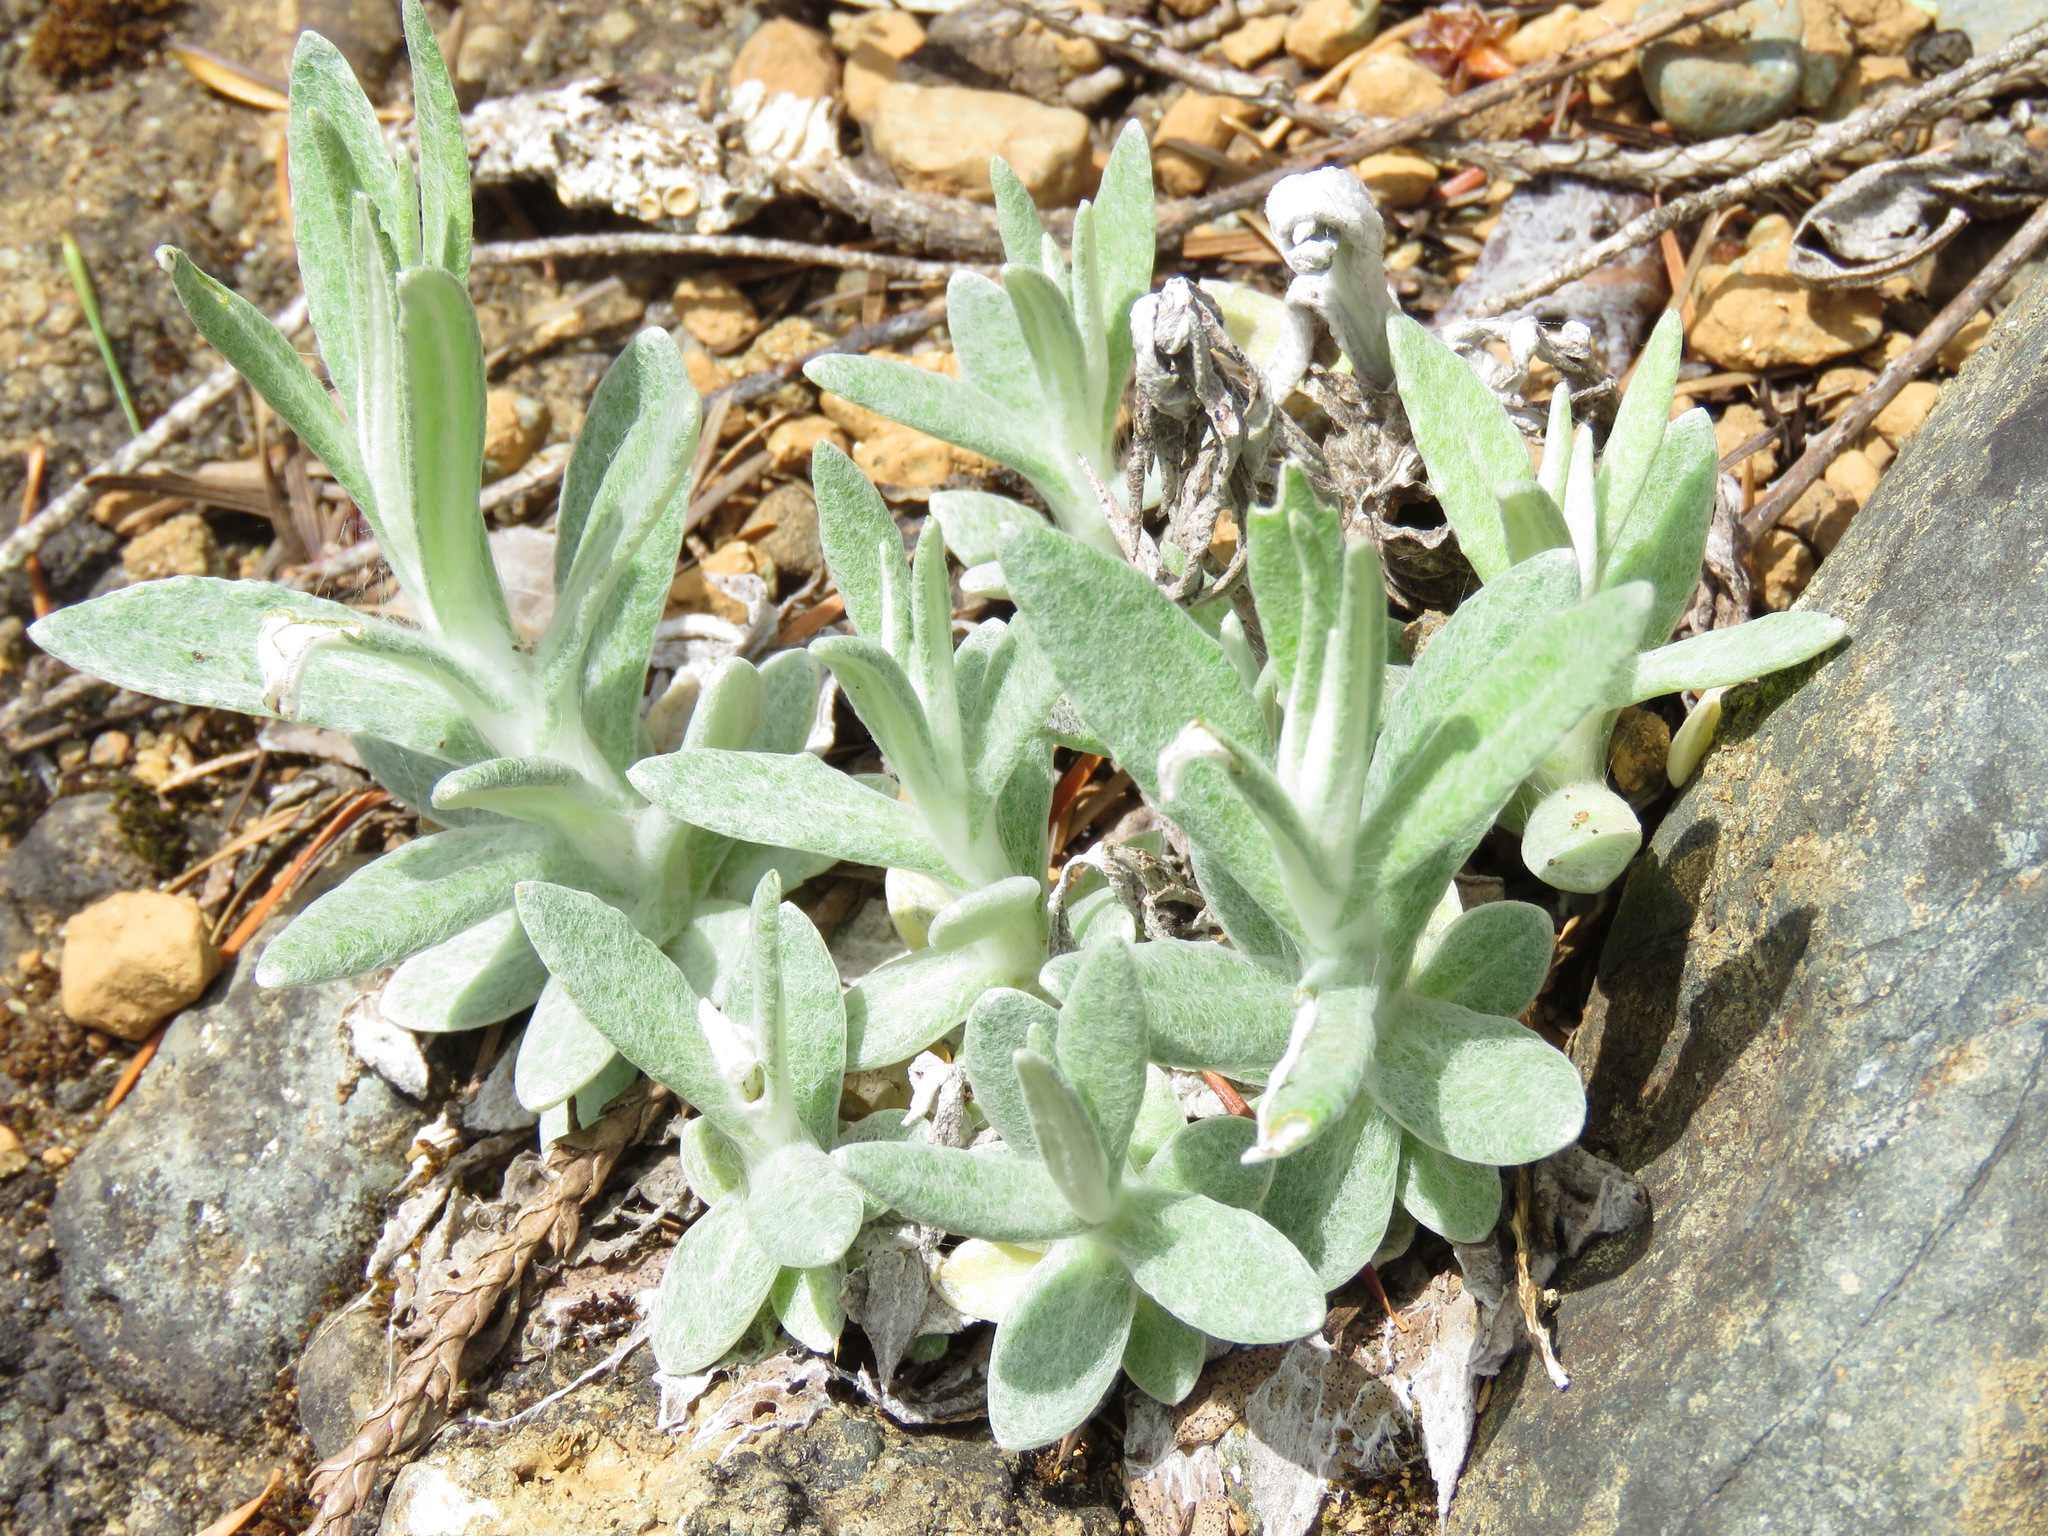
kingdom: Plantae
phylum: Tracheophyta
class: Magnoliopsida
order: Asterales
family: Asteraceae
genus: Anaphalis
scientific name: Anaphalis margaritacea
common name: Pearly everlasting
